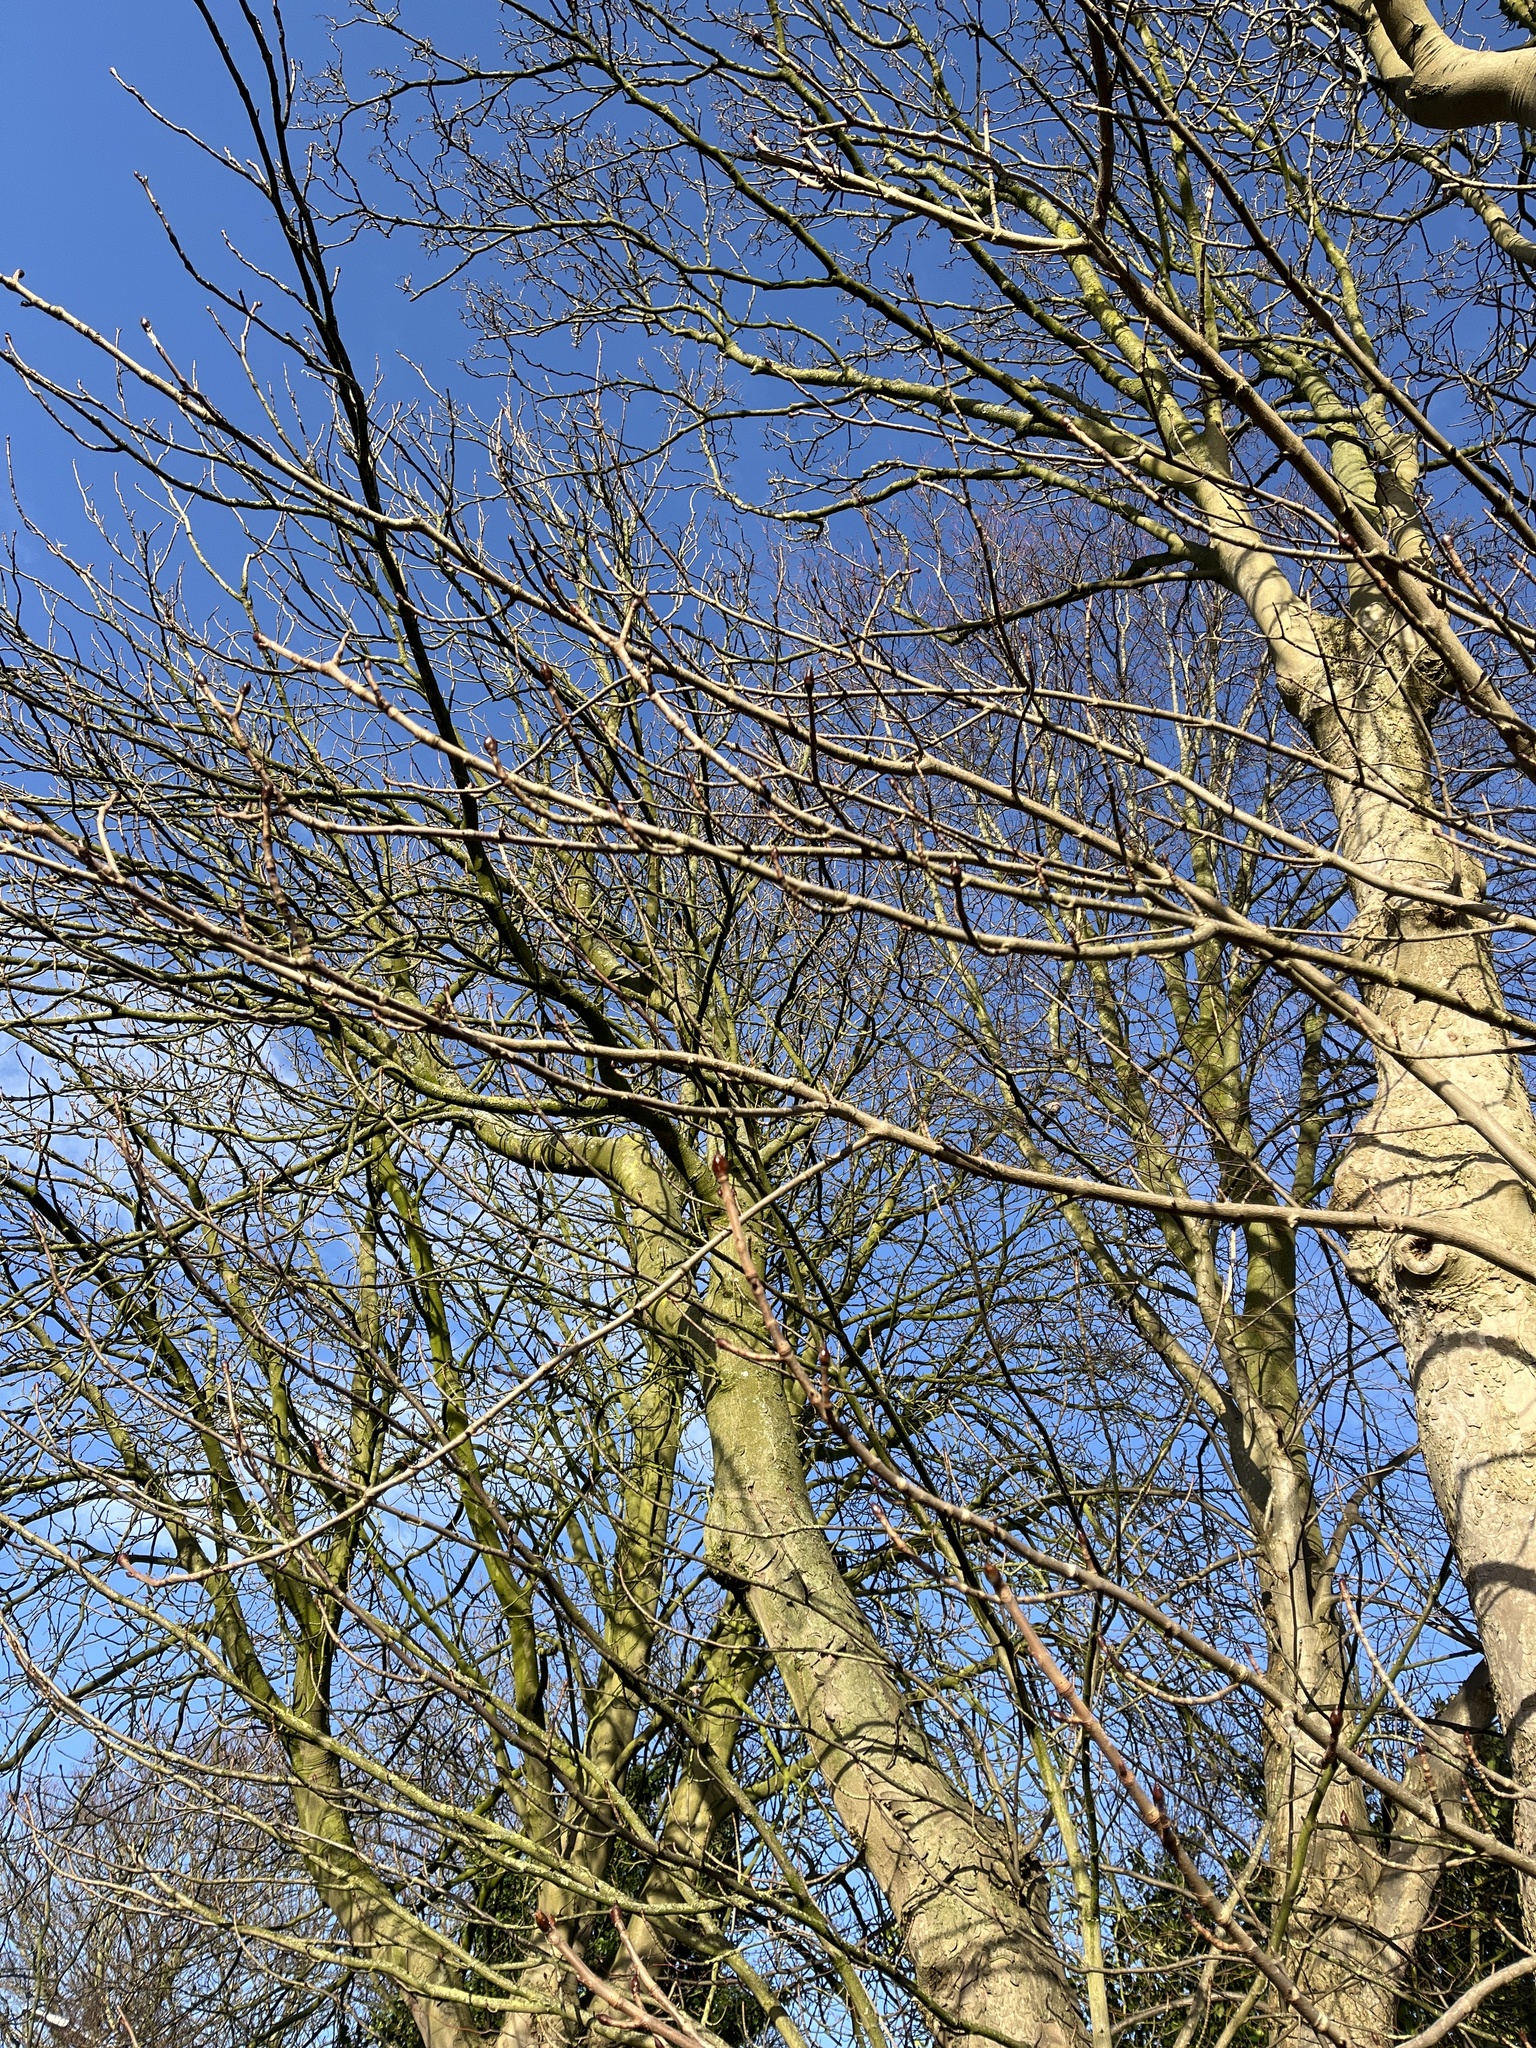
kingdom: Plantae
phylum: Tracheophyta
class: Magnoliopsida
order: Sapindales
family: Sapindaceae
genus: Aesculus
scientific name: Aesculus hippocastanum
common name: Horse-chestnut
